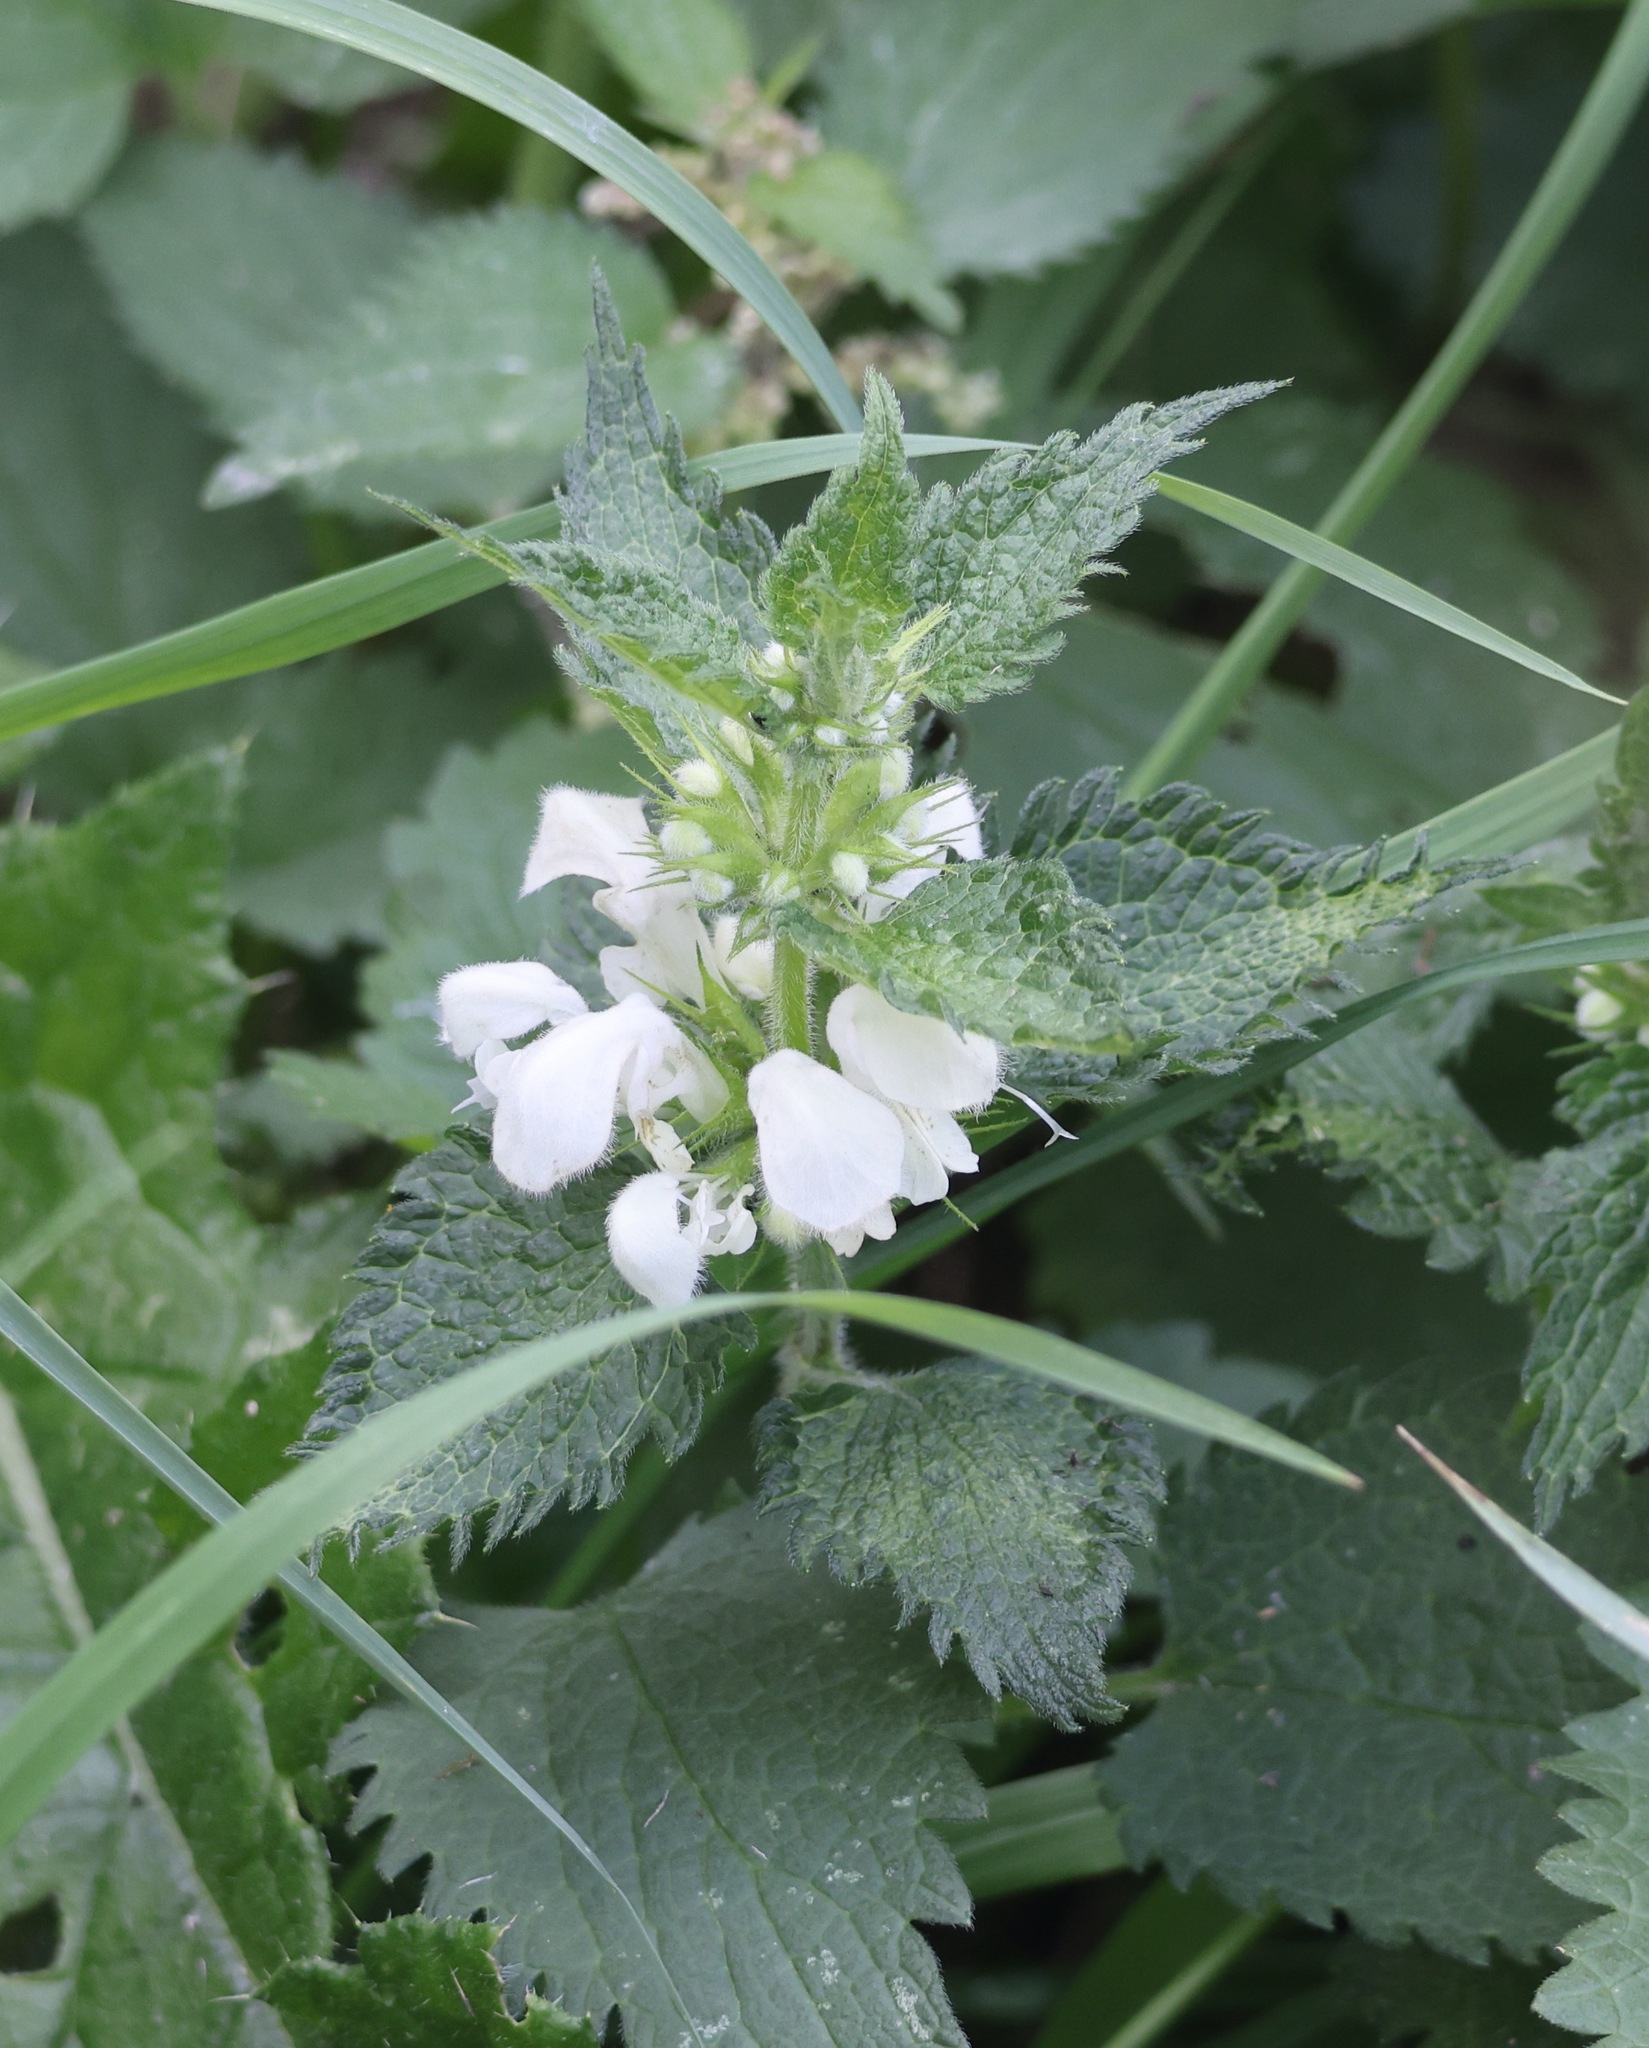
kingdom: Plantae
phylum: Tracheophyta
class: Magnoliopsida
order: Lamiales
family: Lamiaceae
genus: Lamium
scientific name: Lamium album
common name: White dead-nettle
